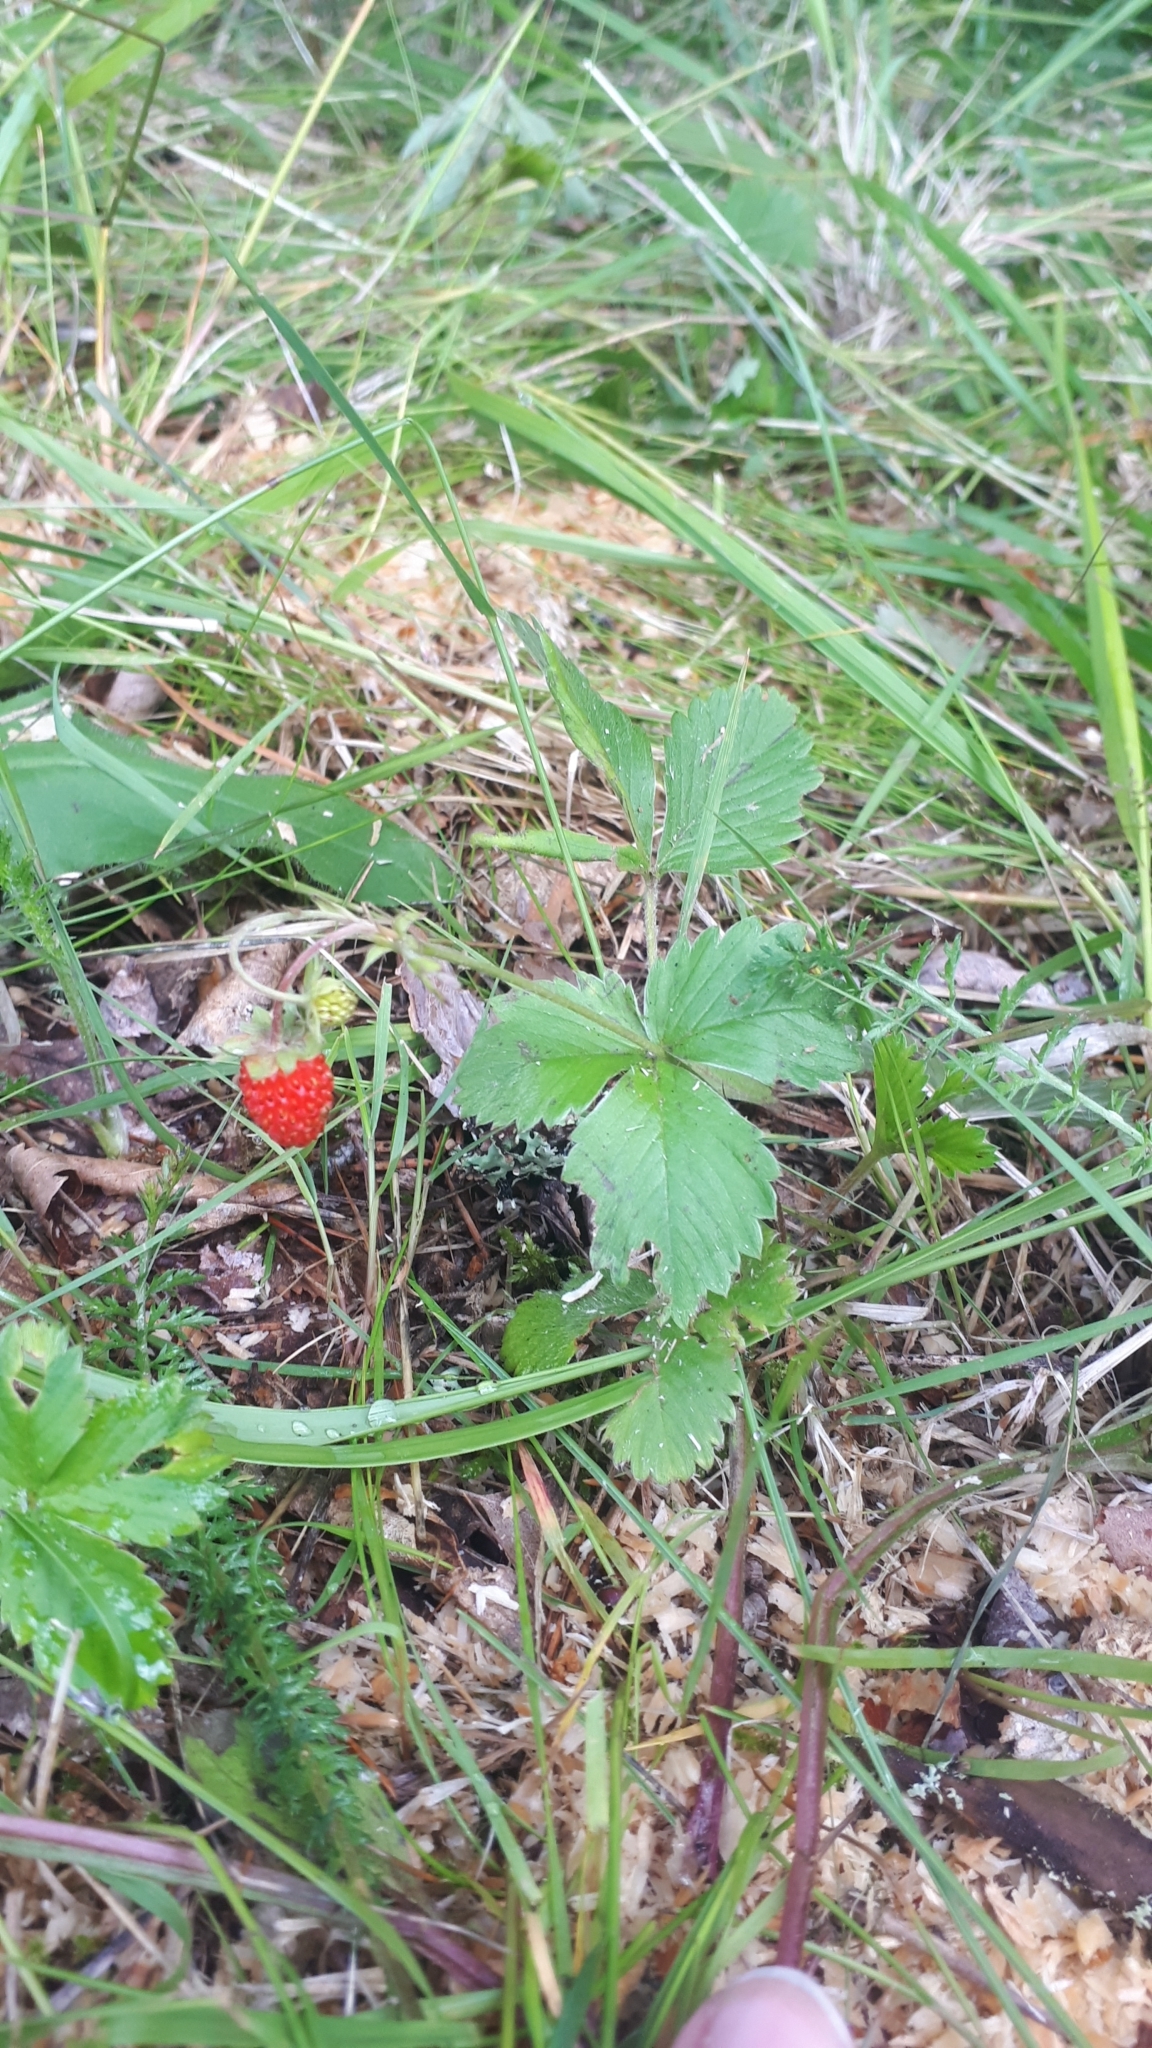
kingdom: Plantae
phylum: Tracheophyta
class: Magnoliopsida
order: Rosales
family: Rosaceae
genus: Fragaria
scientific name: Fragaria vesca
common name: Wild strawberry
